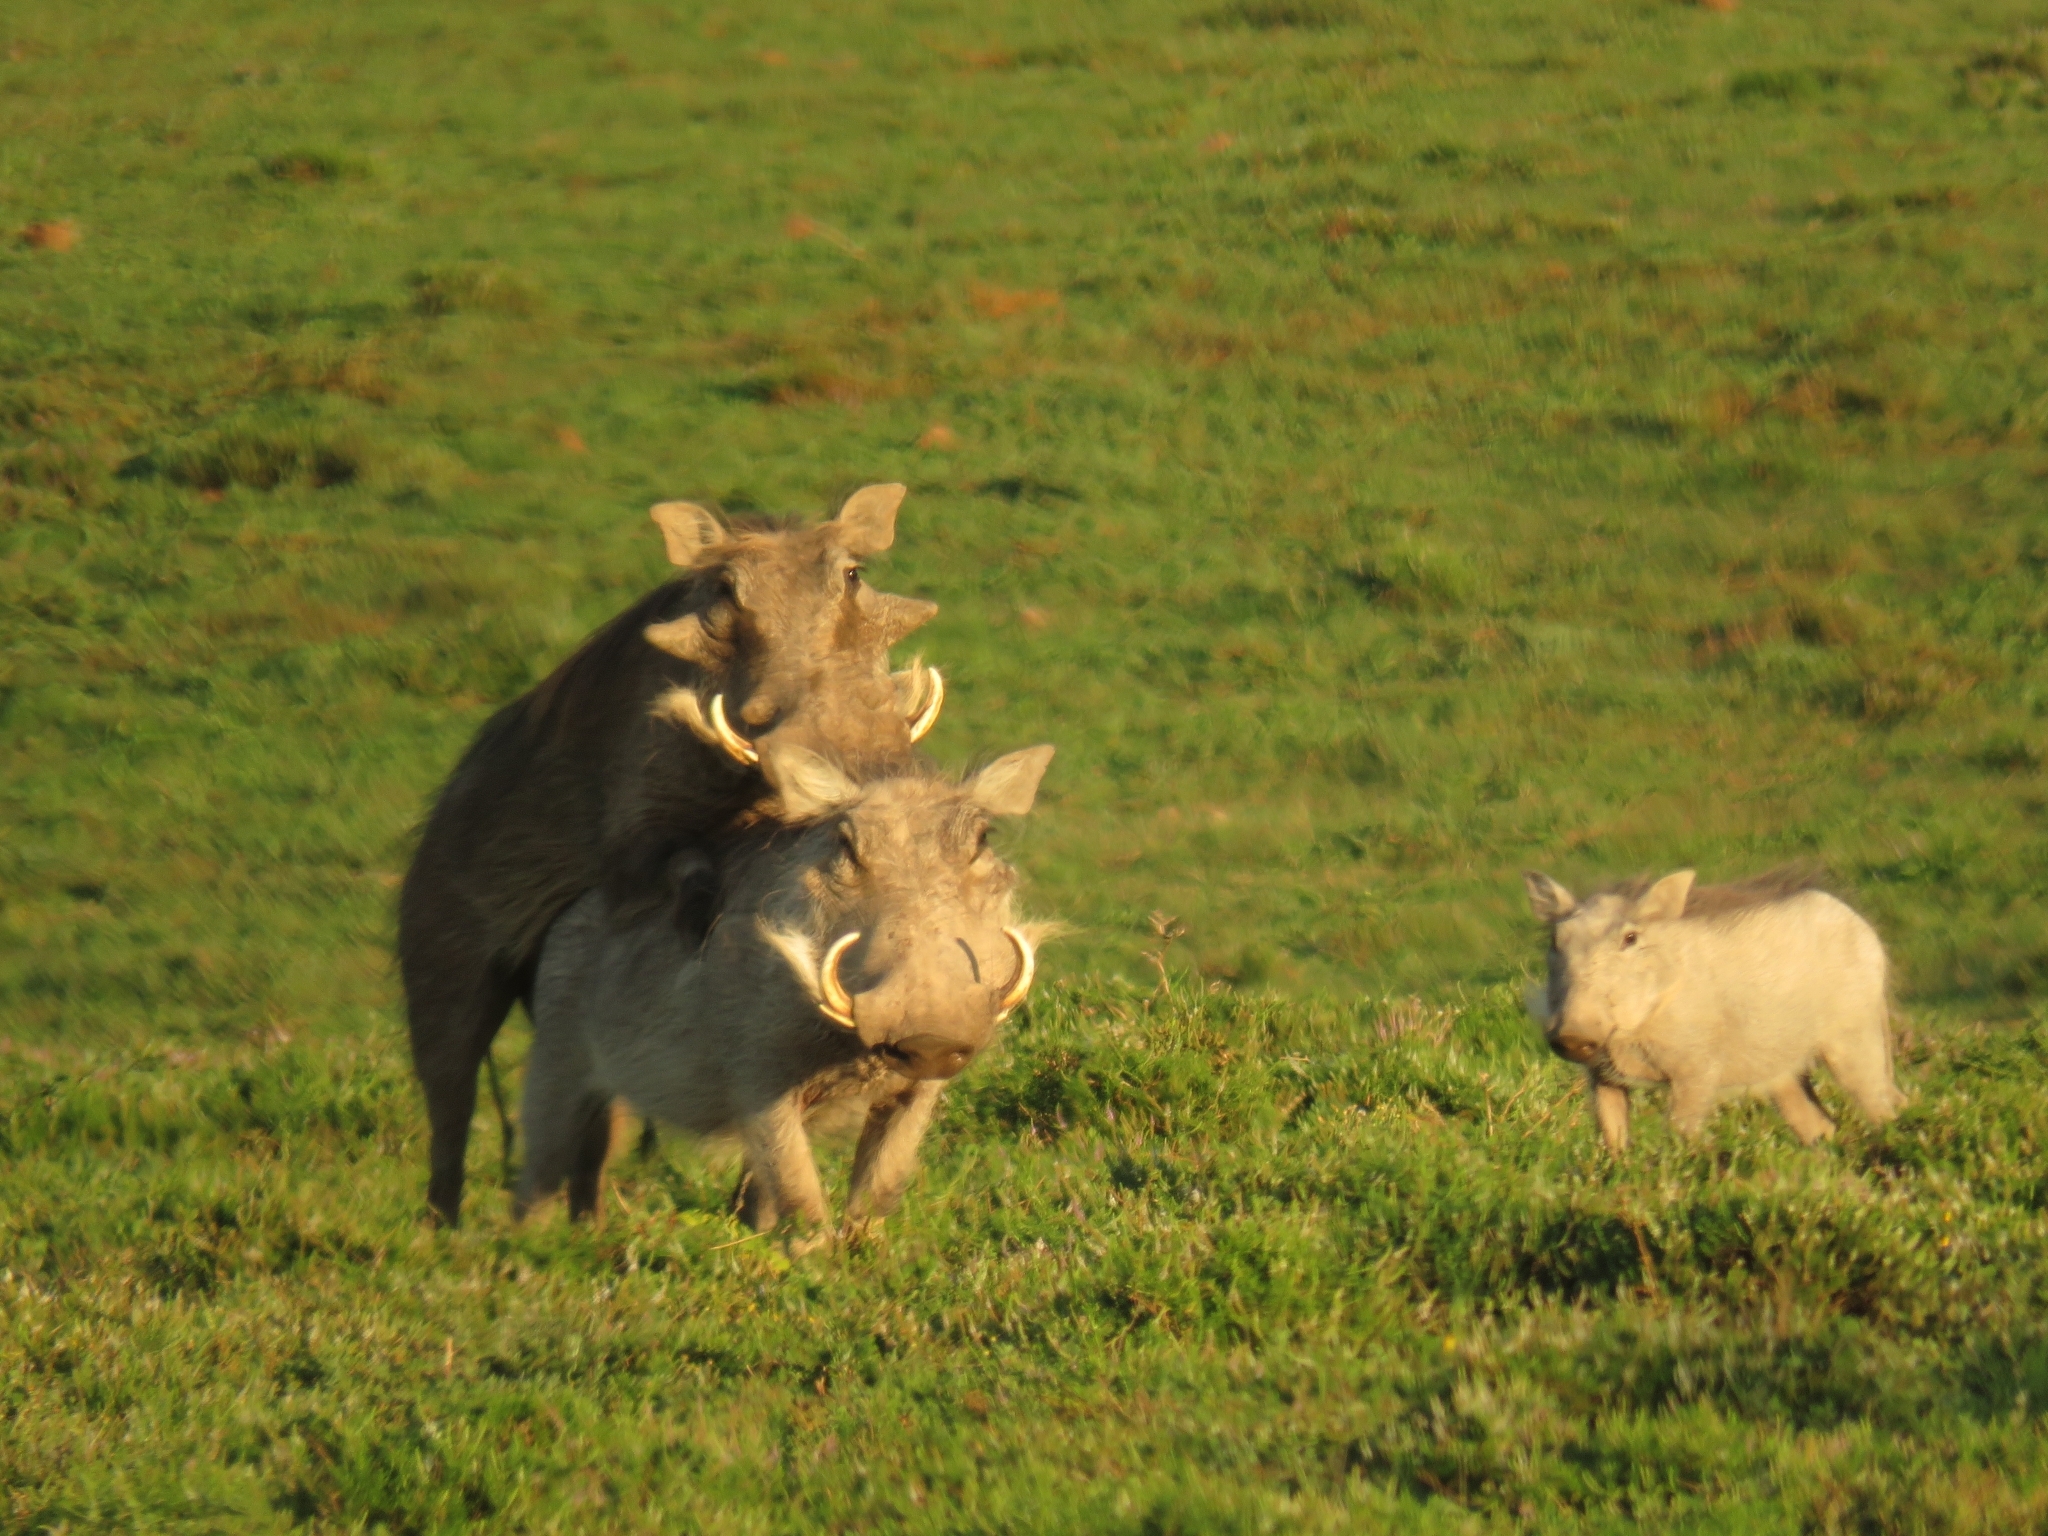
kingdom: Animalia
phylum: Chordata
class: Mammalia
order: Artiodactyla
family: Suidae
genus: Phacochoerus
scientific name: Phacochoerus africanus
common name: Common warthog
